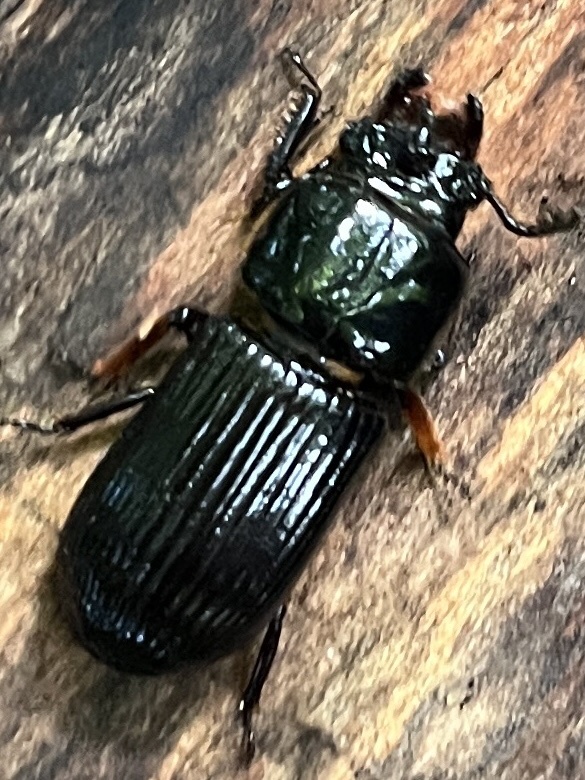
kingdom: Animalia
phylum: Arthropoda
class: Insecta
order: Coleoptera
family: Passalidae
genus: Odontotaenius
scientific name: Odontotaenius disjunctus
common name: Patent leather beetle
